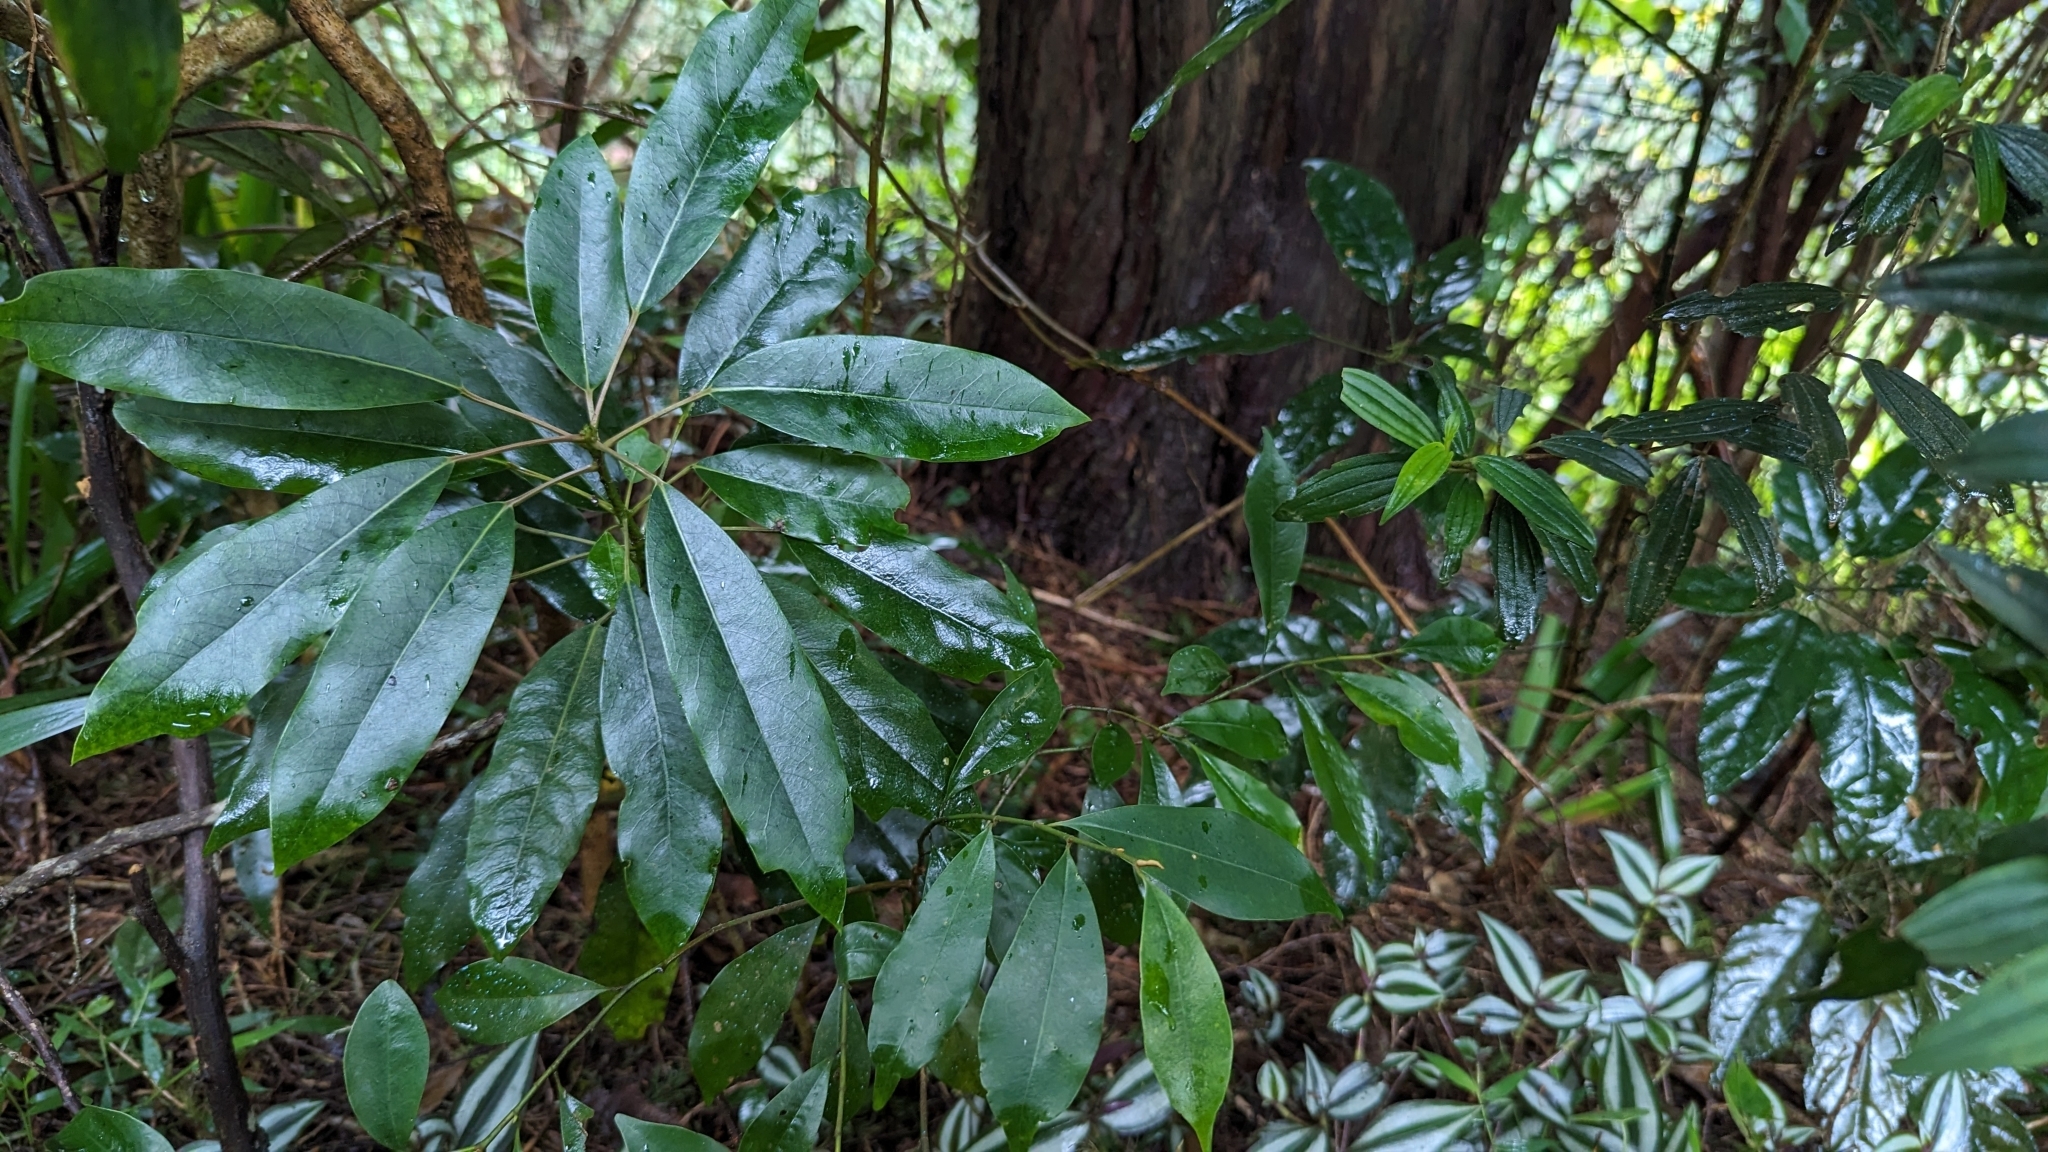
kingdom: Plantae
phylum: Tracheophyta
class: Magnoliopsida
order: Saxifragales
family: Daphniphyllaceae
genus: Daphniphyllum
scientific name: Daphniphyllum pentandrum
